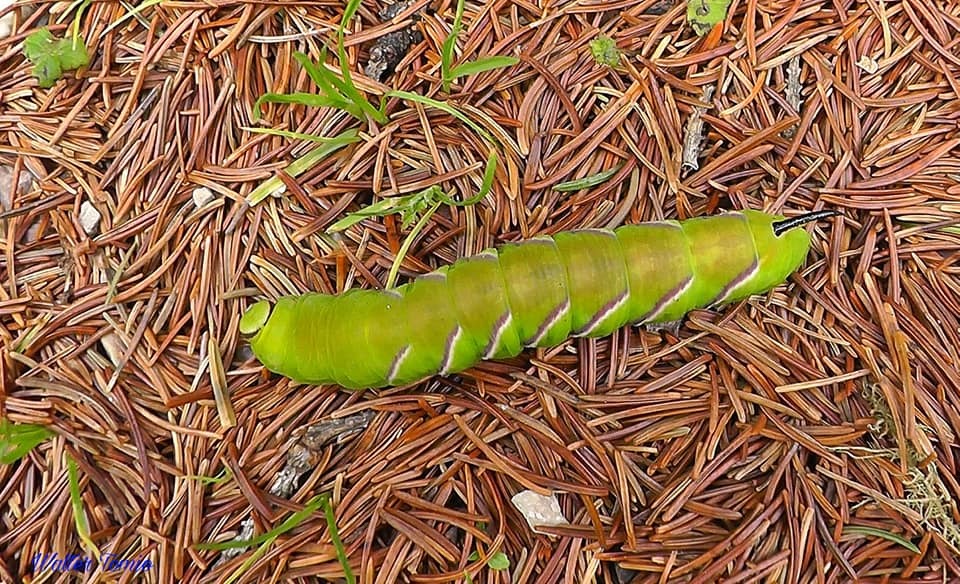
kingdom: Animalia
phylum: Arthropoda
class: Insecta
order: Lepidoptera
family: Sphingidae
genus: Sphinx
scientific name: Sphinx ligustri
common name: Privet hawk-moth
